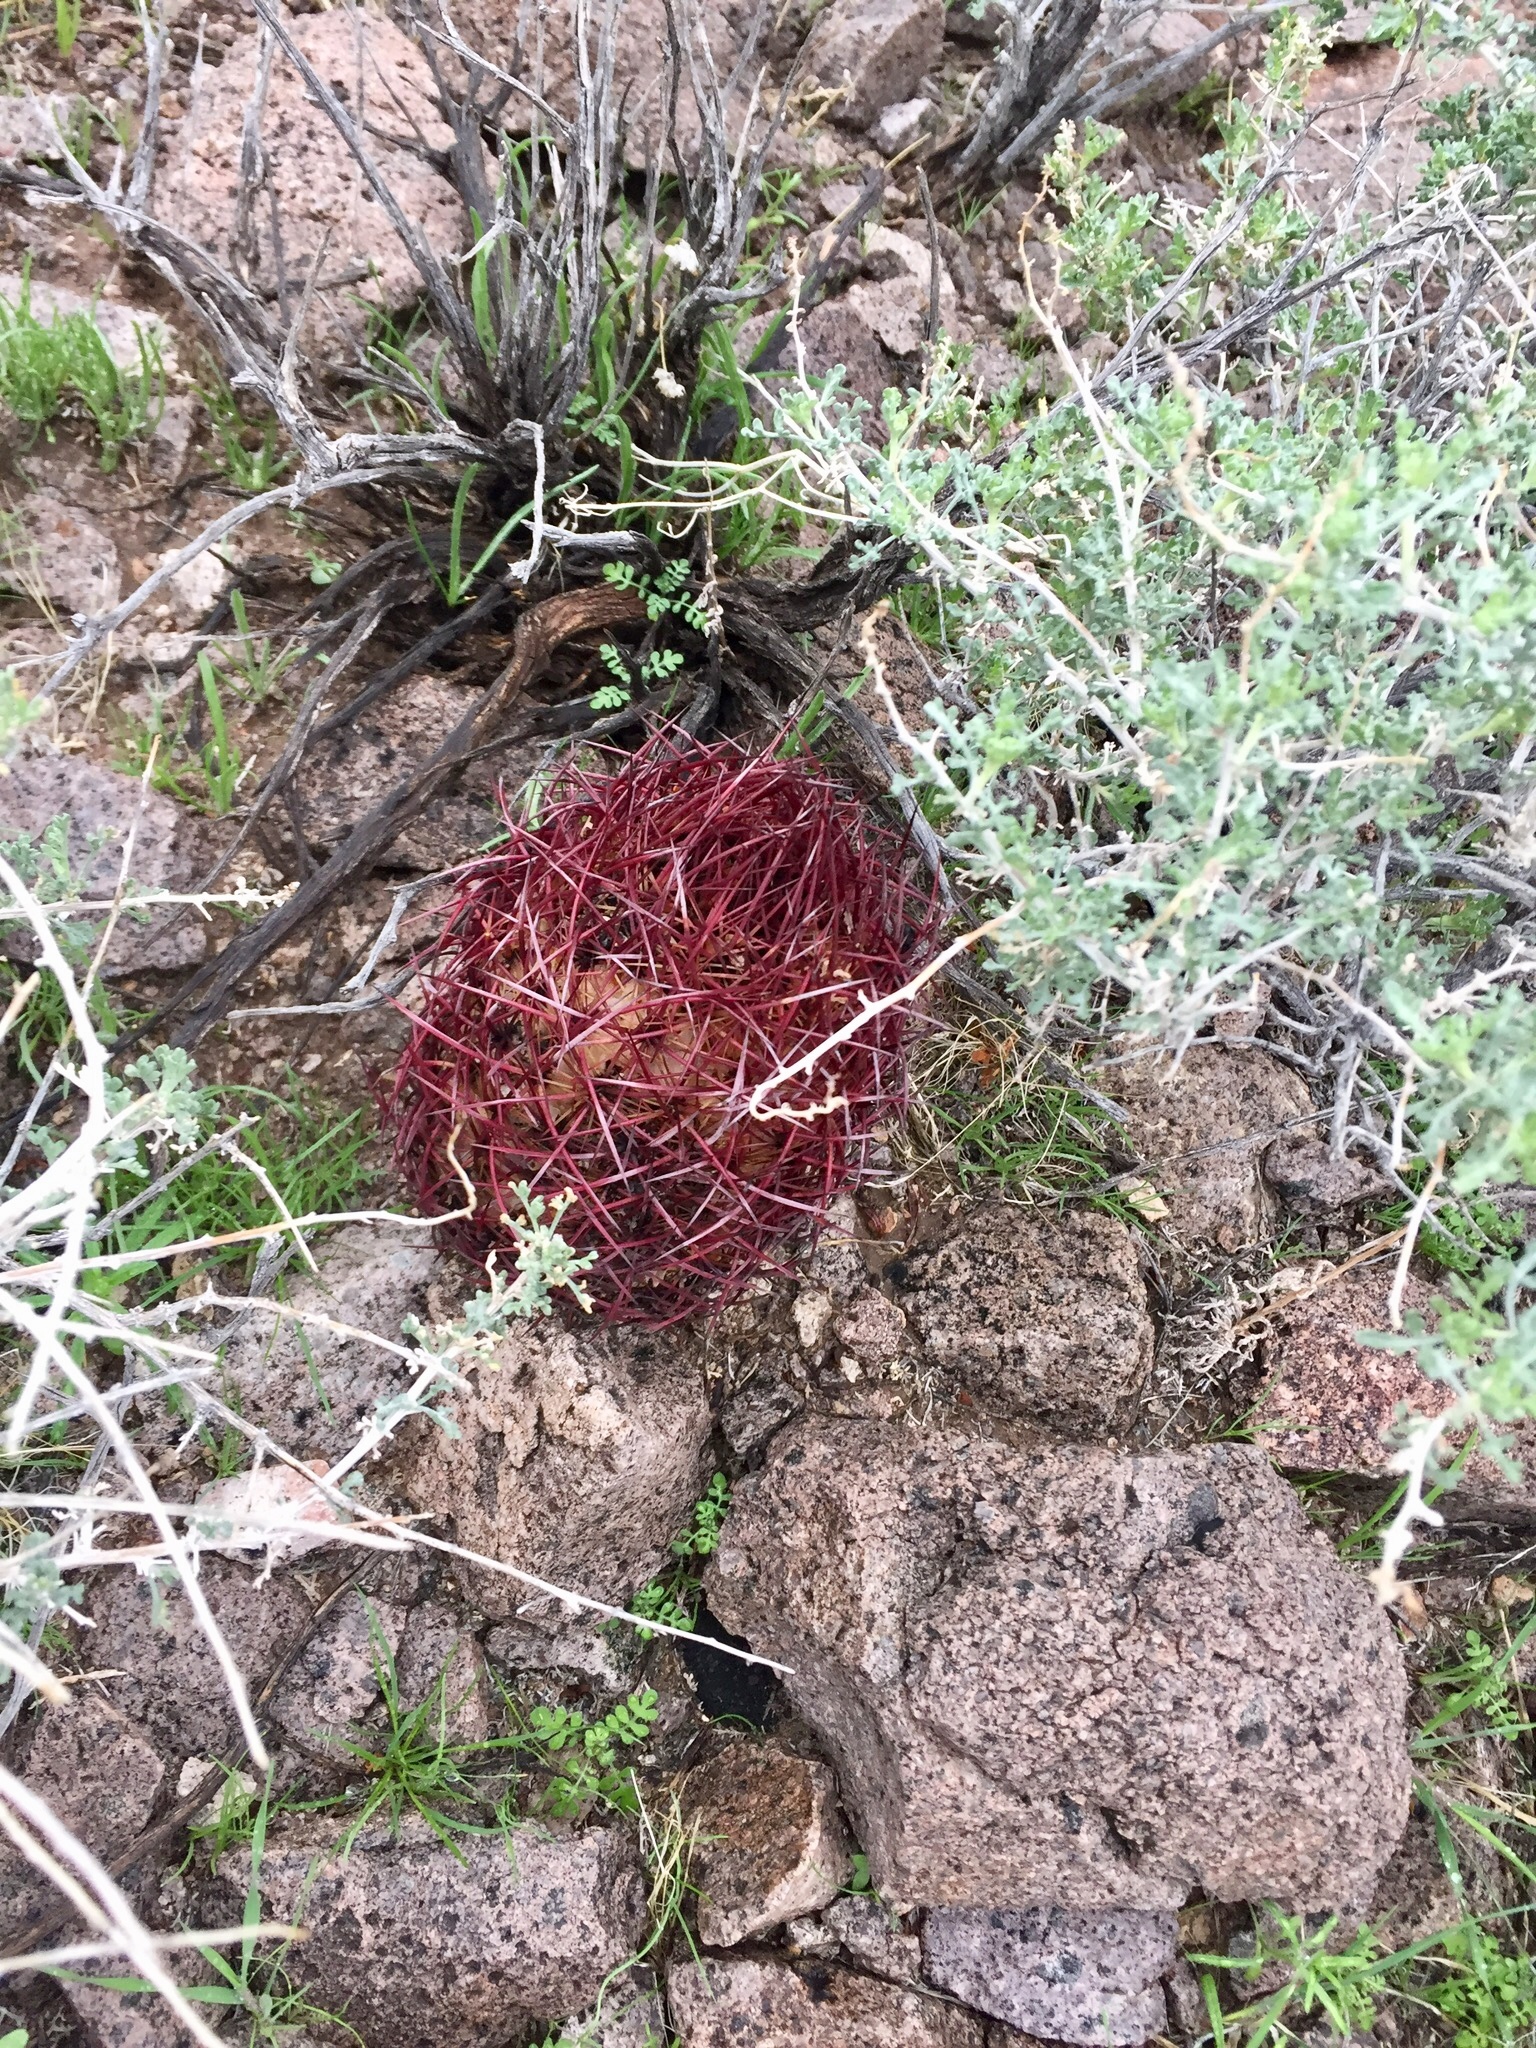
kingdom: Plantae
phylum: Tracheophyta
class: Magnoliopsida
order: Caryophyllales
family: Cactaceae
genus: Sclerocactus
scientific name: Sclerocactus johnsonii
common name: Eight-spine fishhook cactus
